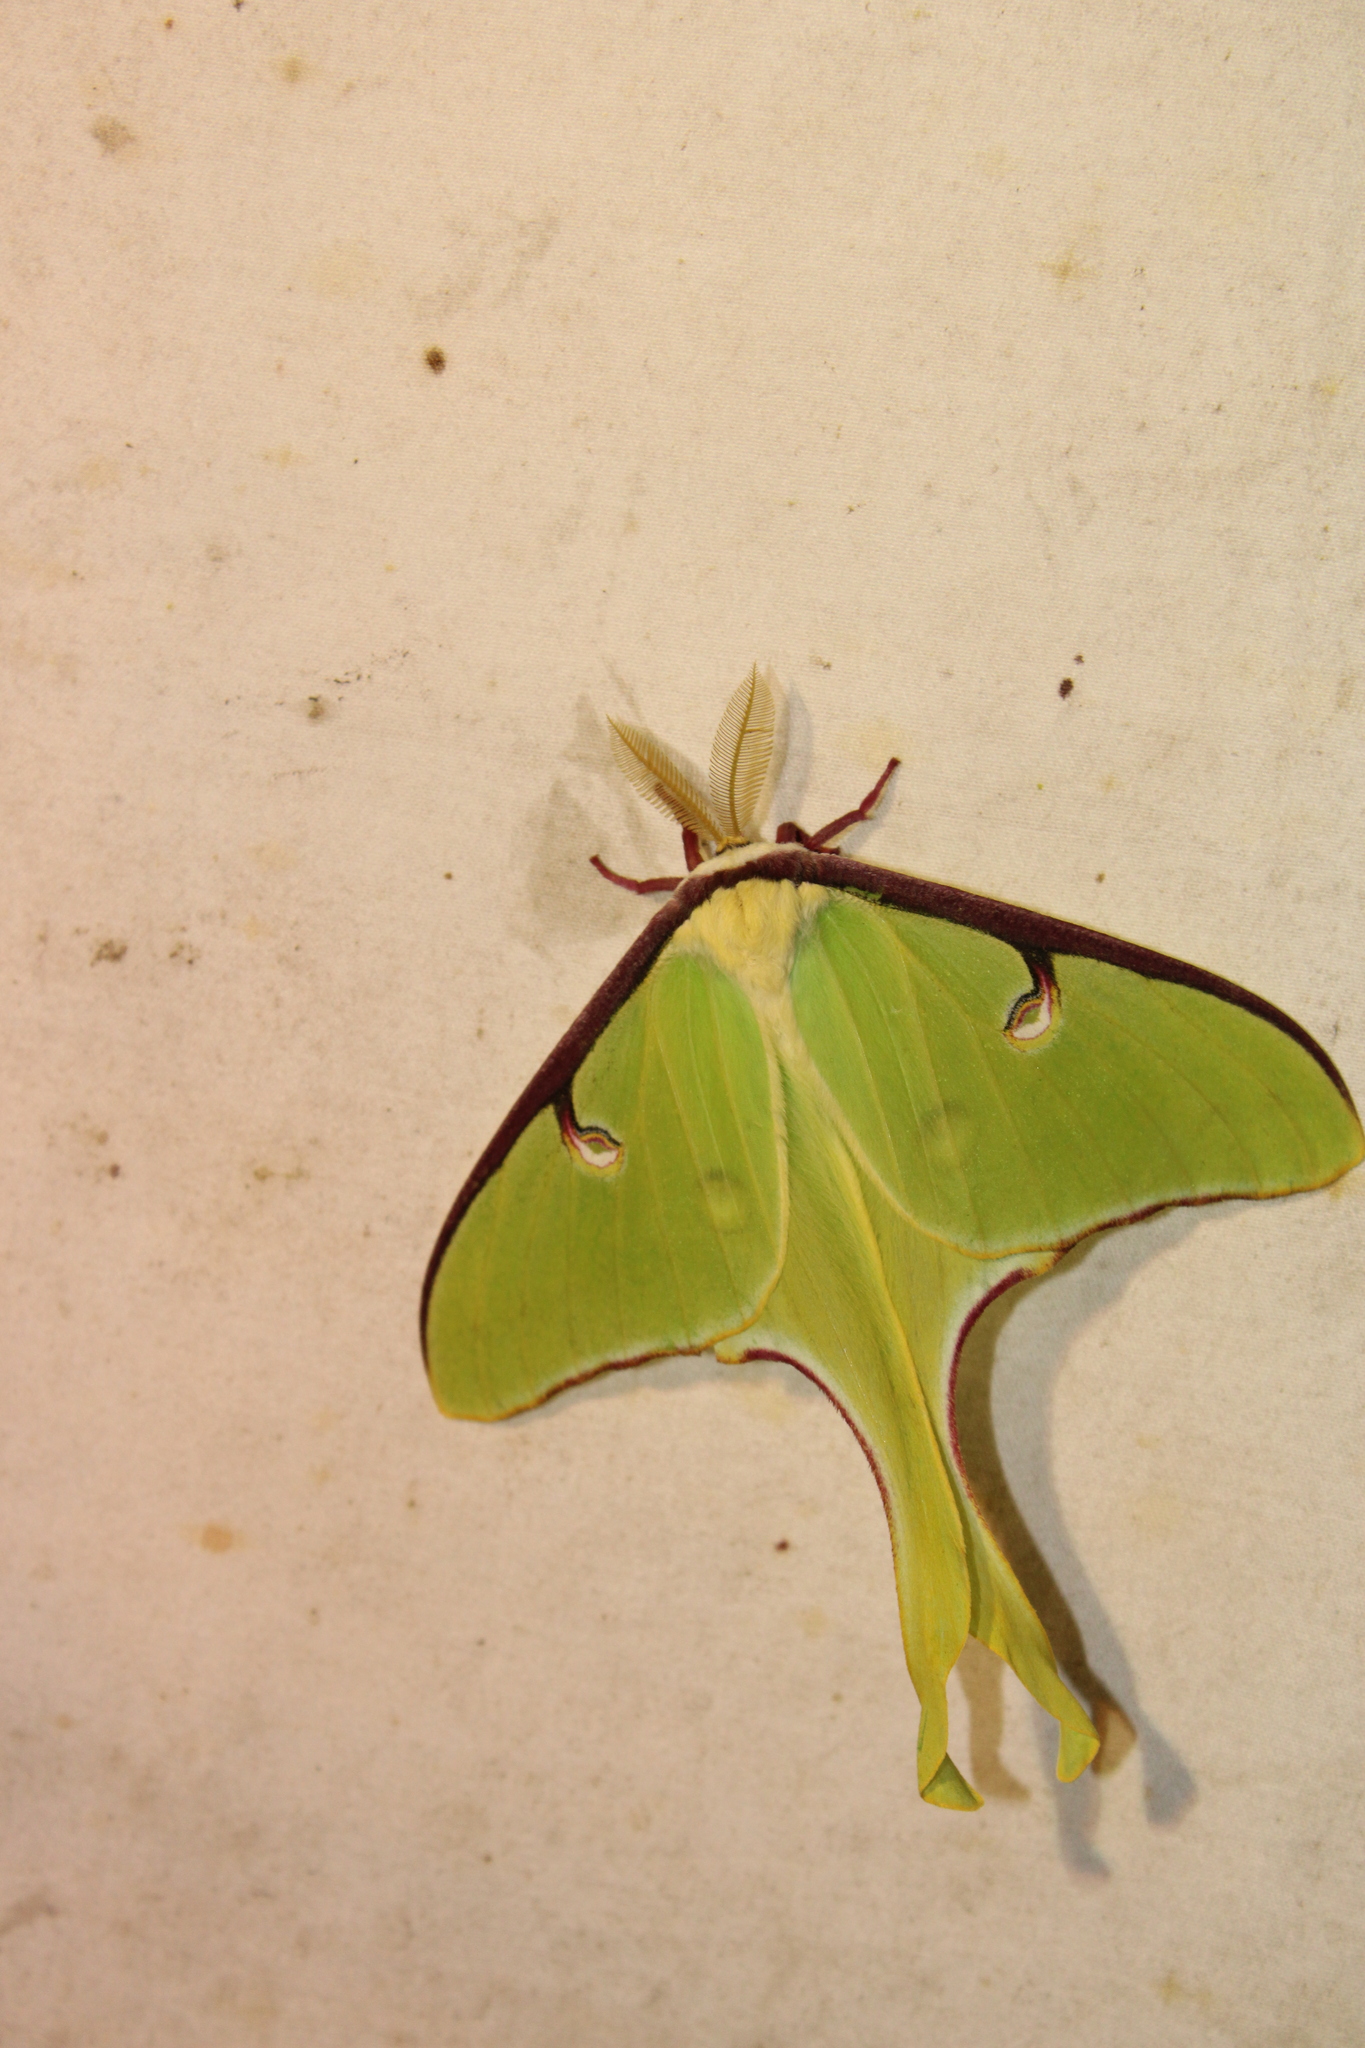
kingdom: Animalia
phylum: Arthropoda
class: Insecta
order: Lepidoptera
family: Saturniidae
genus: Actias
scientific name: Actias luna
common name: Luna moth
